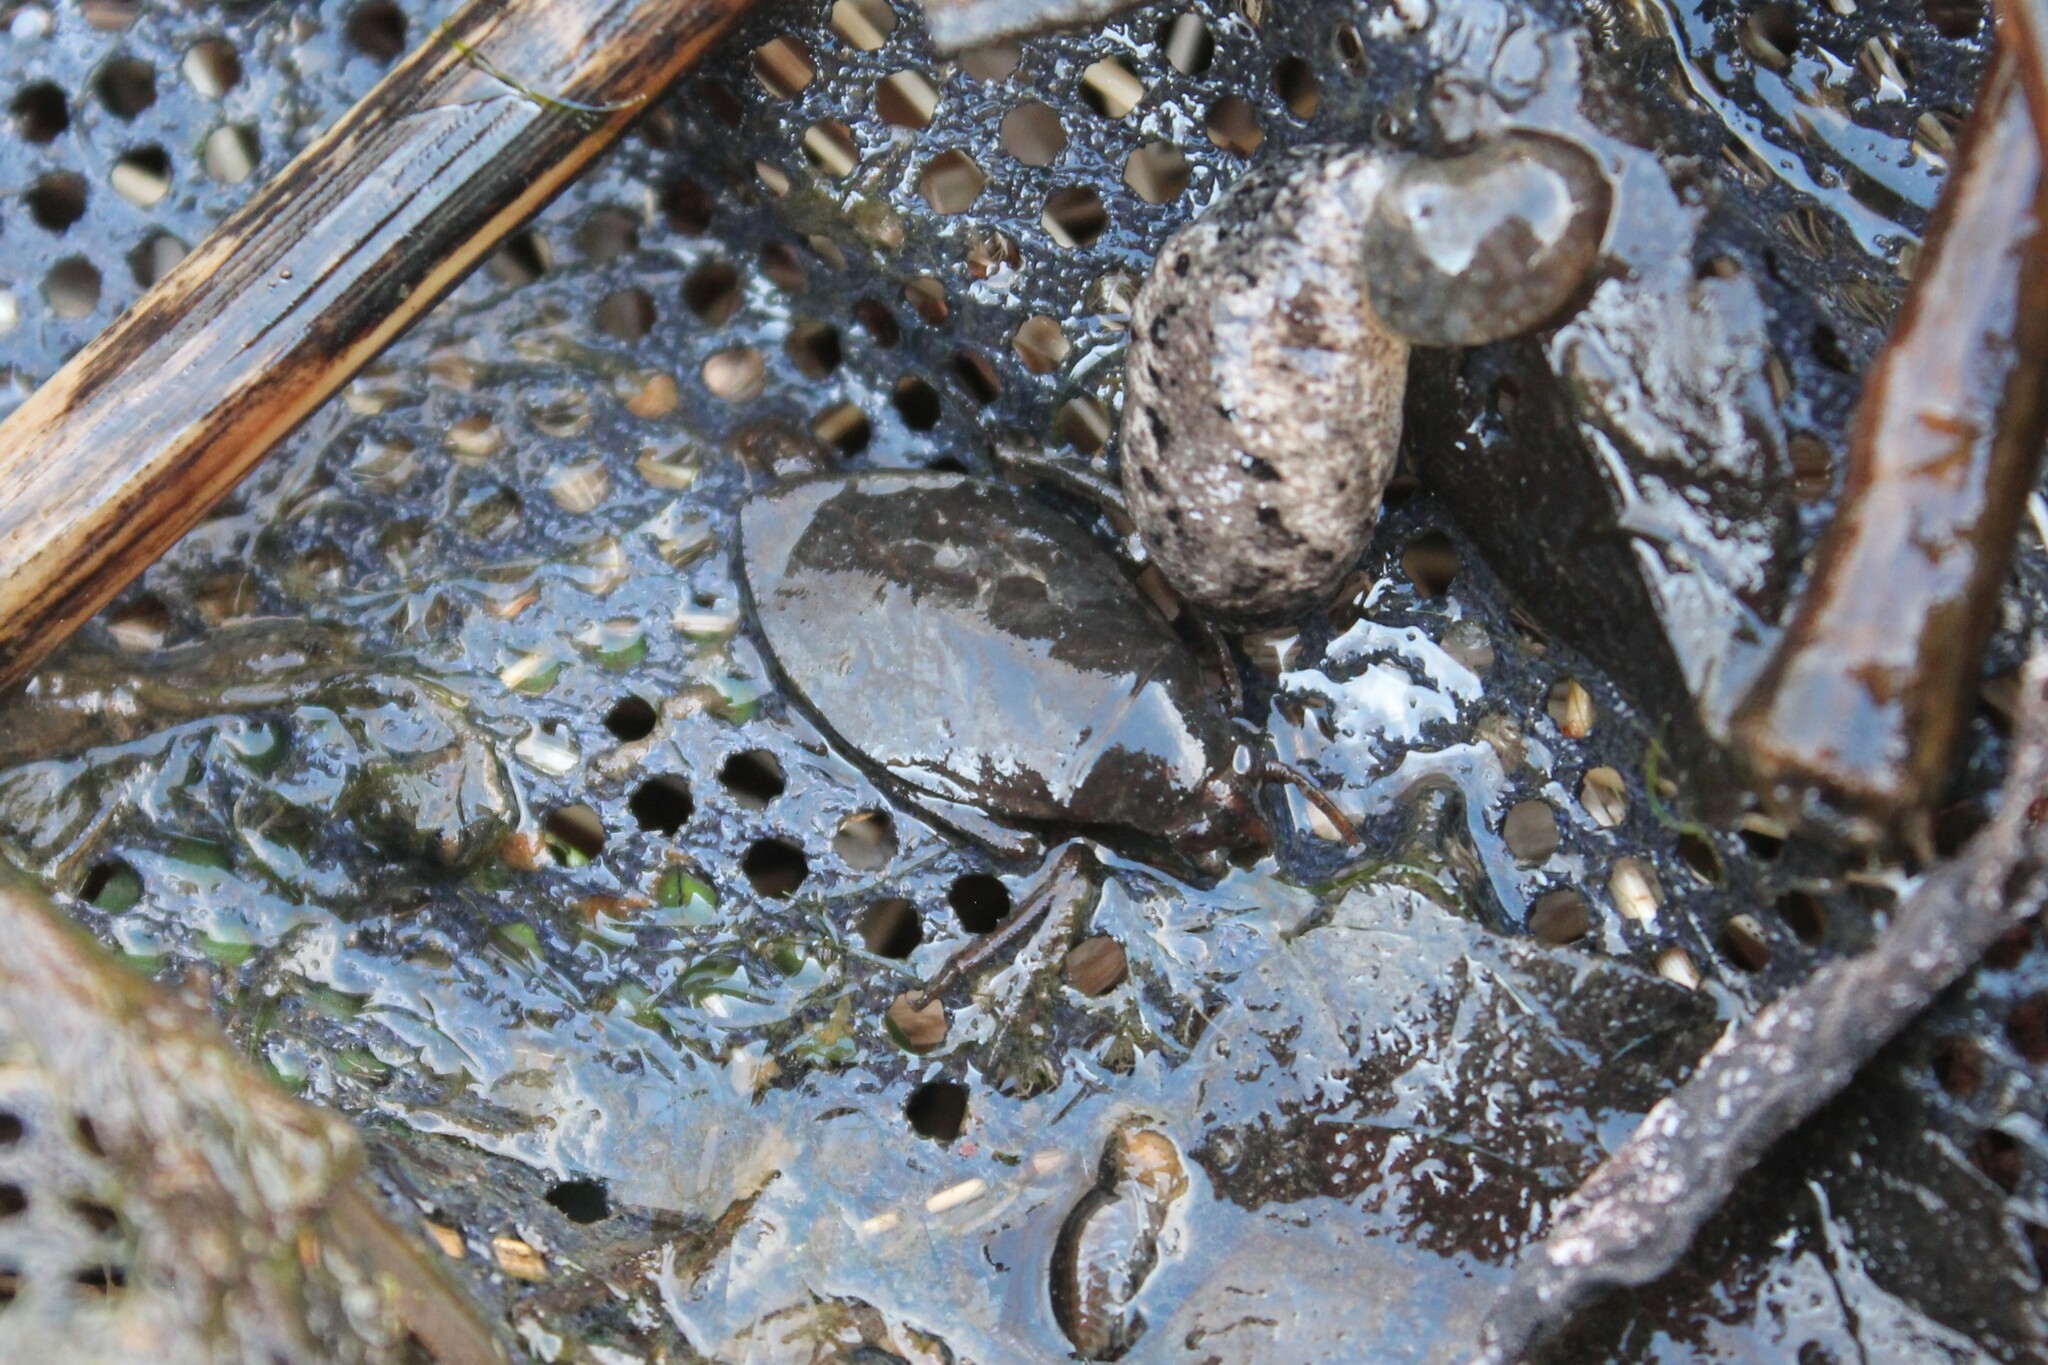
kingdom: Animalia
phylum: Arthropoda
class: Insecta
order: Hemiptera
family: Belostomatidae
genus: Belostoma
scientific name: Belostoma
